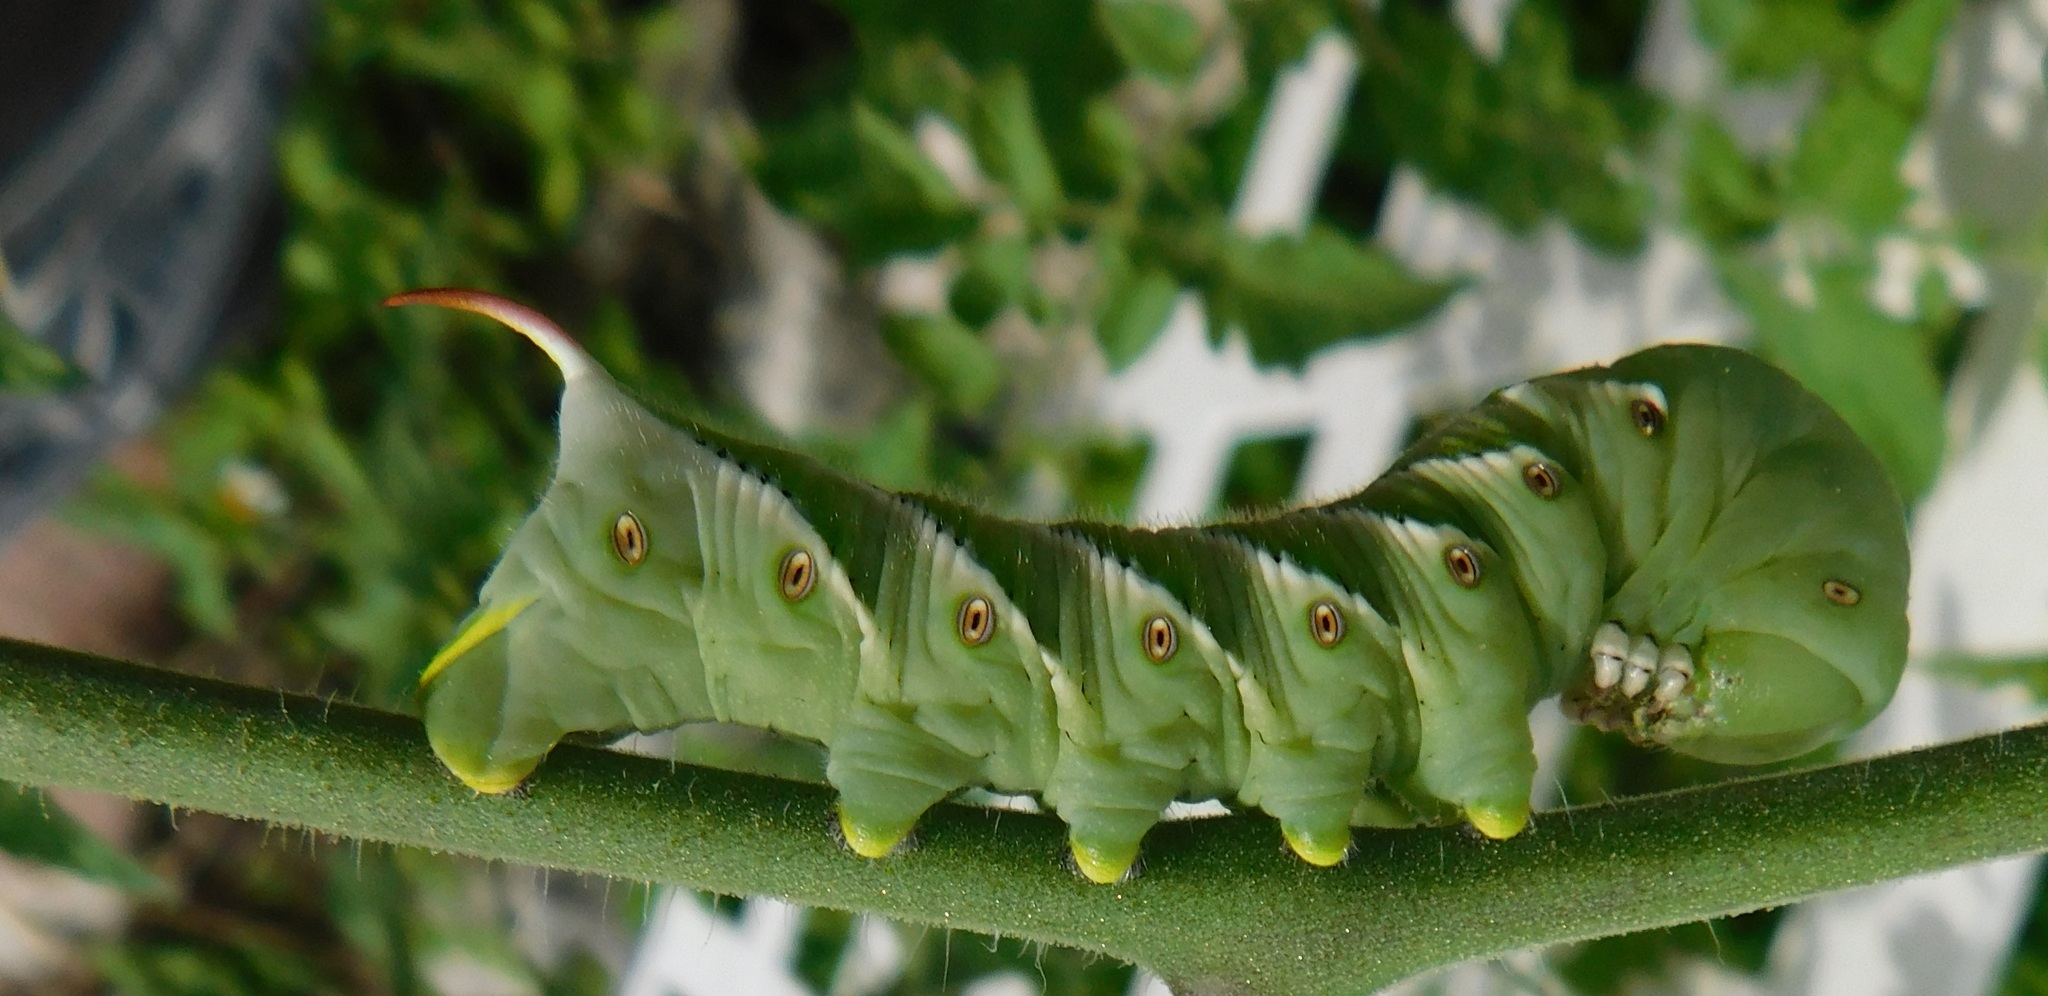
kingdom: Animalia
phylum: Arthropoda
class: Insecta
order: Lepidoptera
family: Sphingidae
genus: Manduca
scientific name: Manduca sexta
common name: Carolina sphinx
